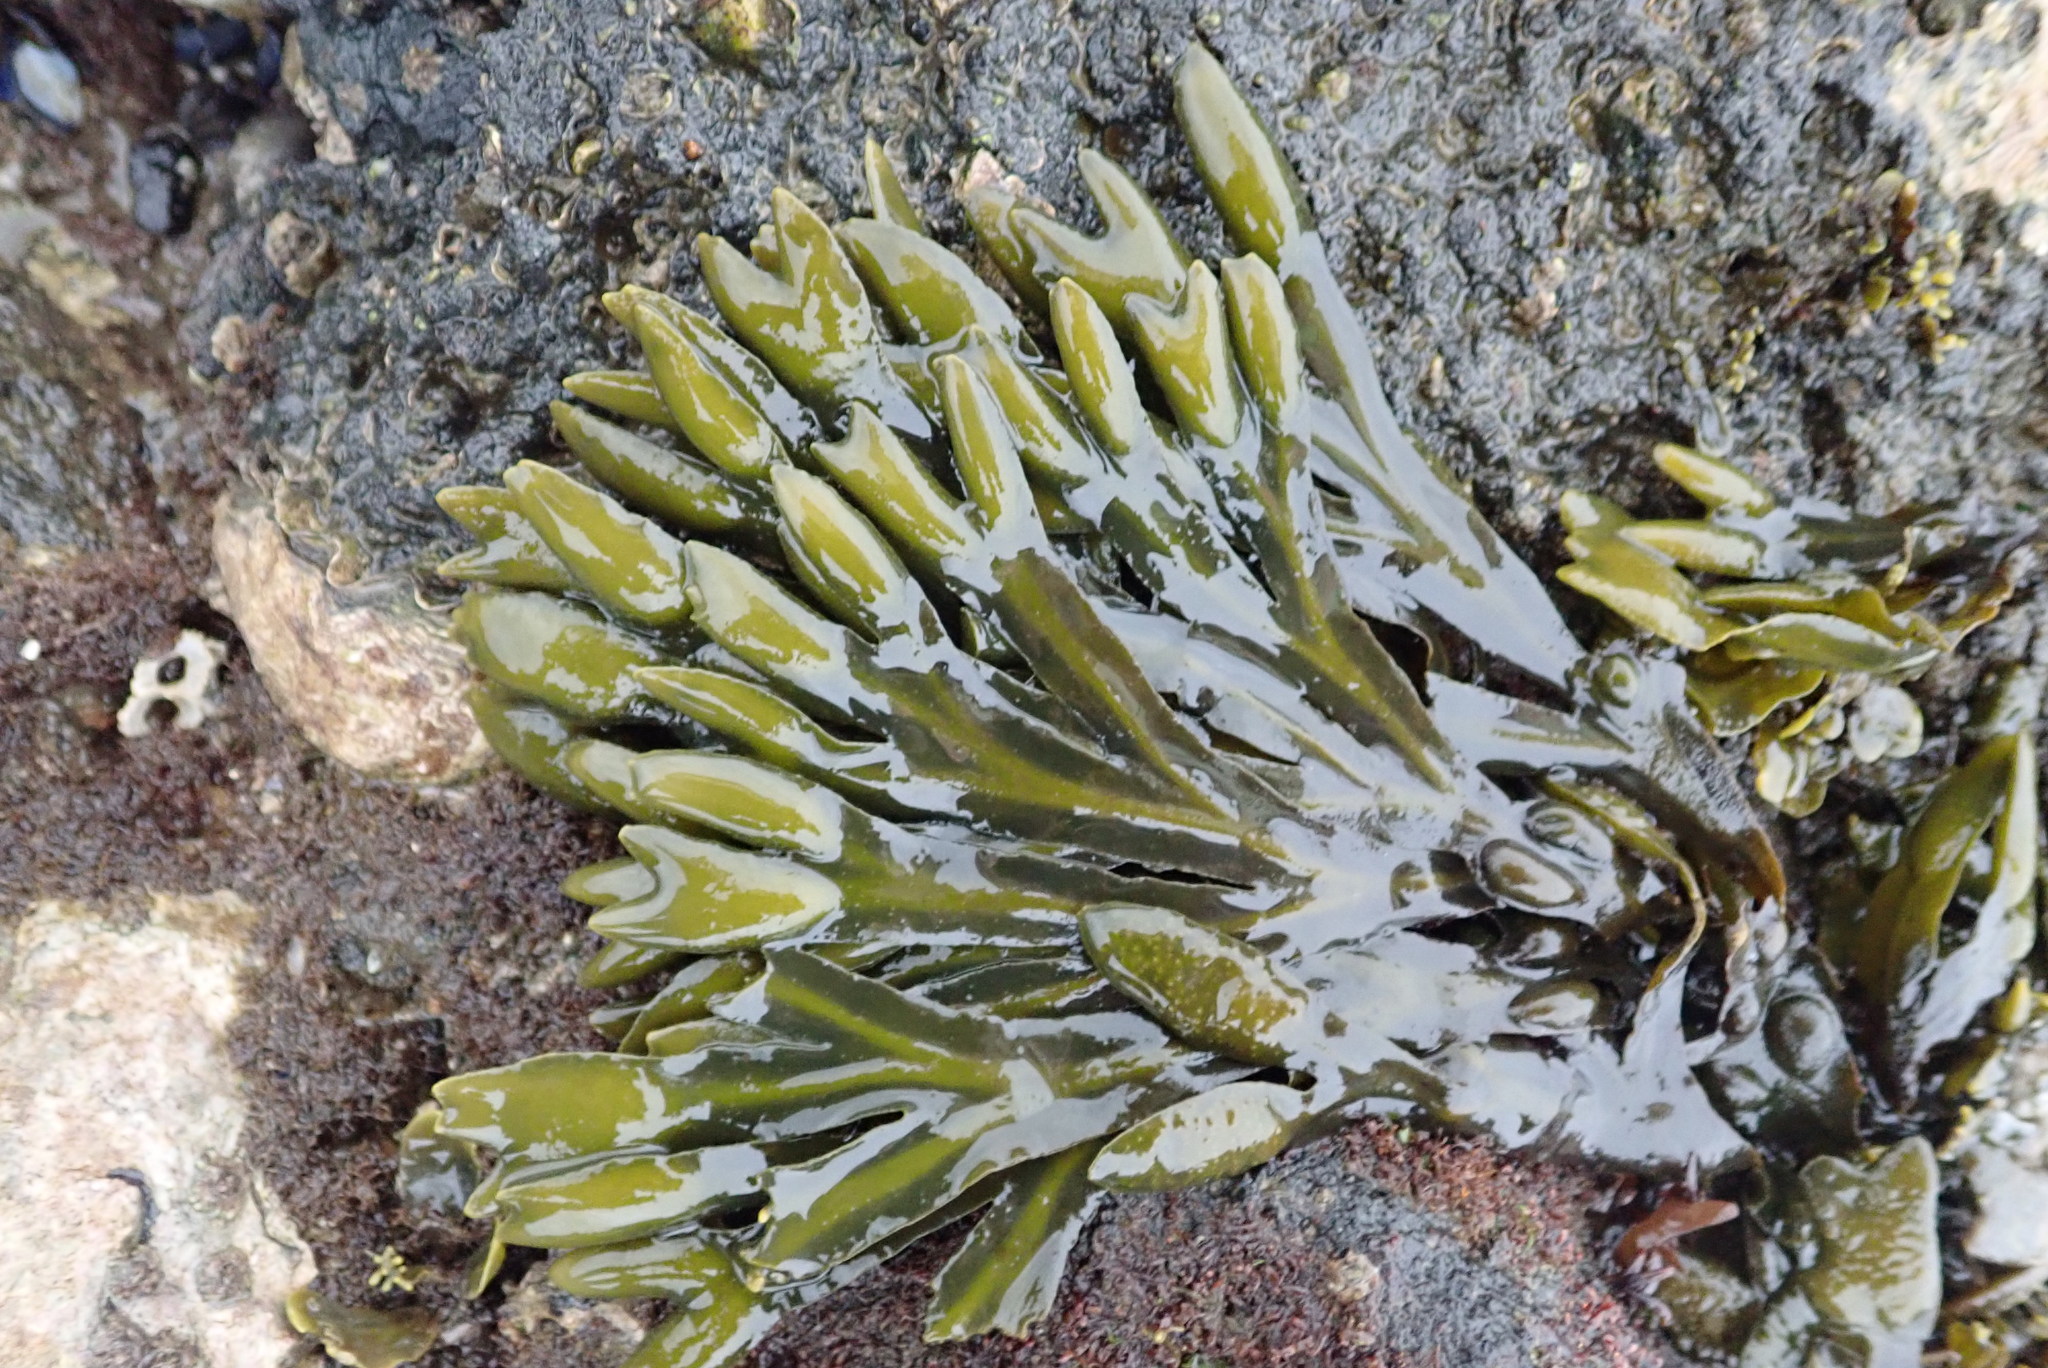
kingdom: Chromista
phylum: Ochrophyta
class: Phaeophyceae
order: Fucales
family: Fucaceae
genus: Fucus
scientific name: Fucus vesiculosus
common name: Bladder wrack
